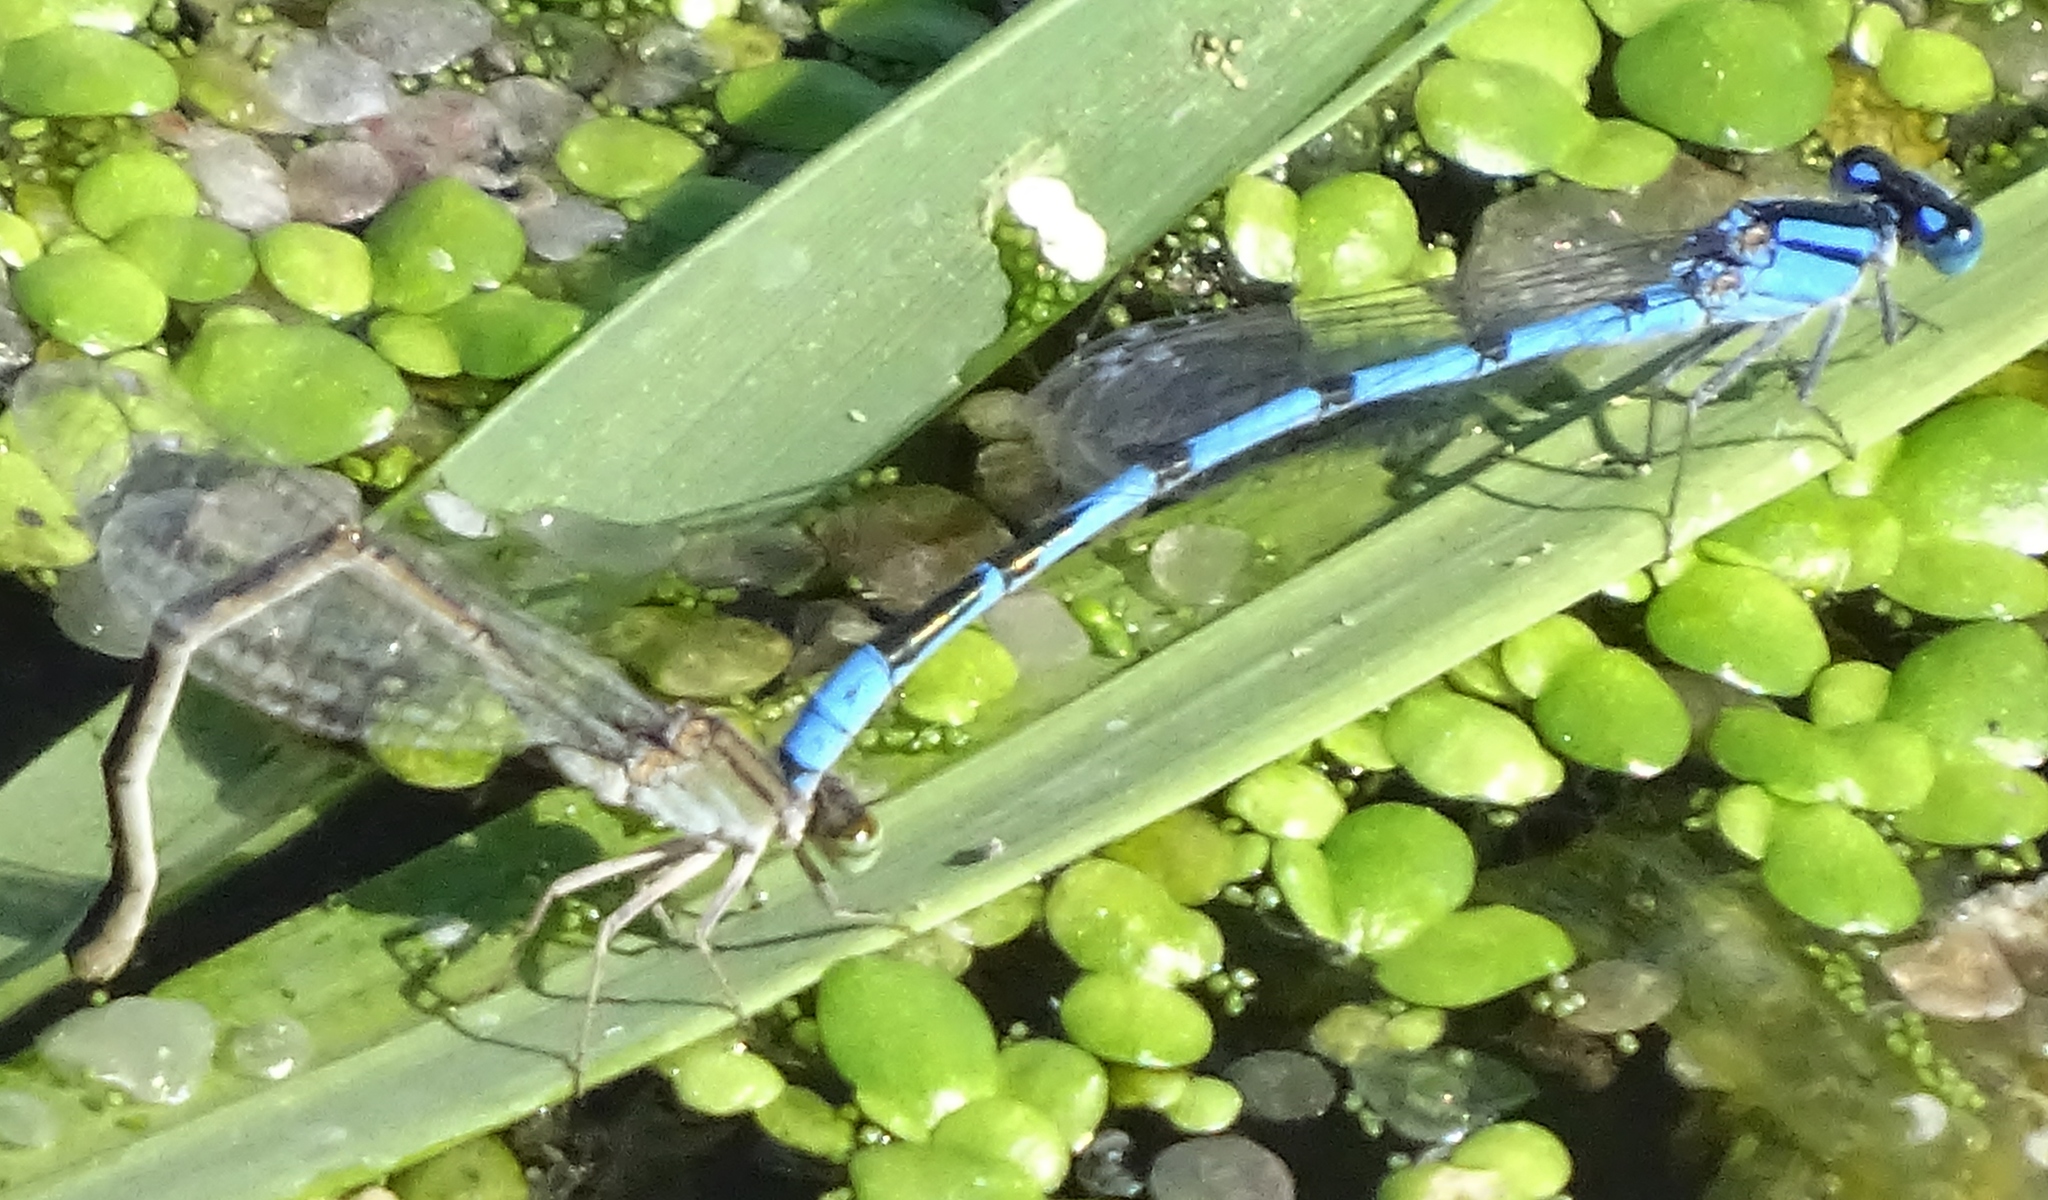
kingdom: Animalia
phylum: Arthropoda
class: Insecta
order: Odonata
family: Coenagrionidae
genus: Enallagma
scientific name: Enallagma civile
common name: Damselfly
